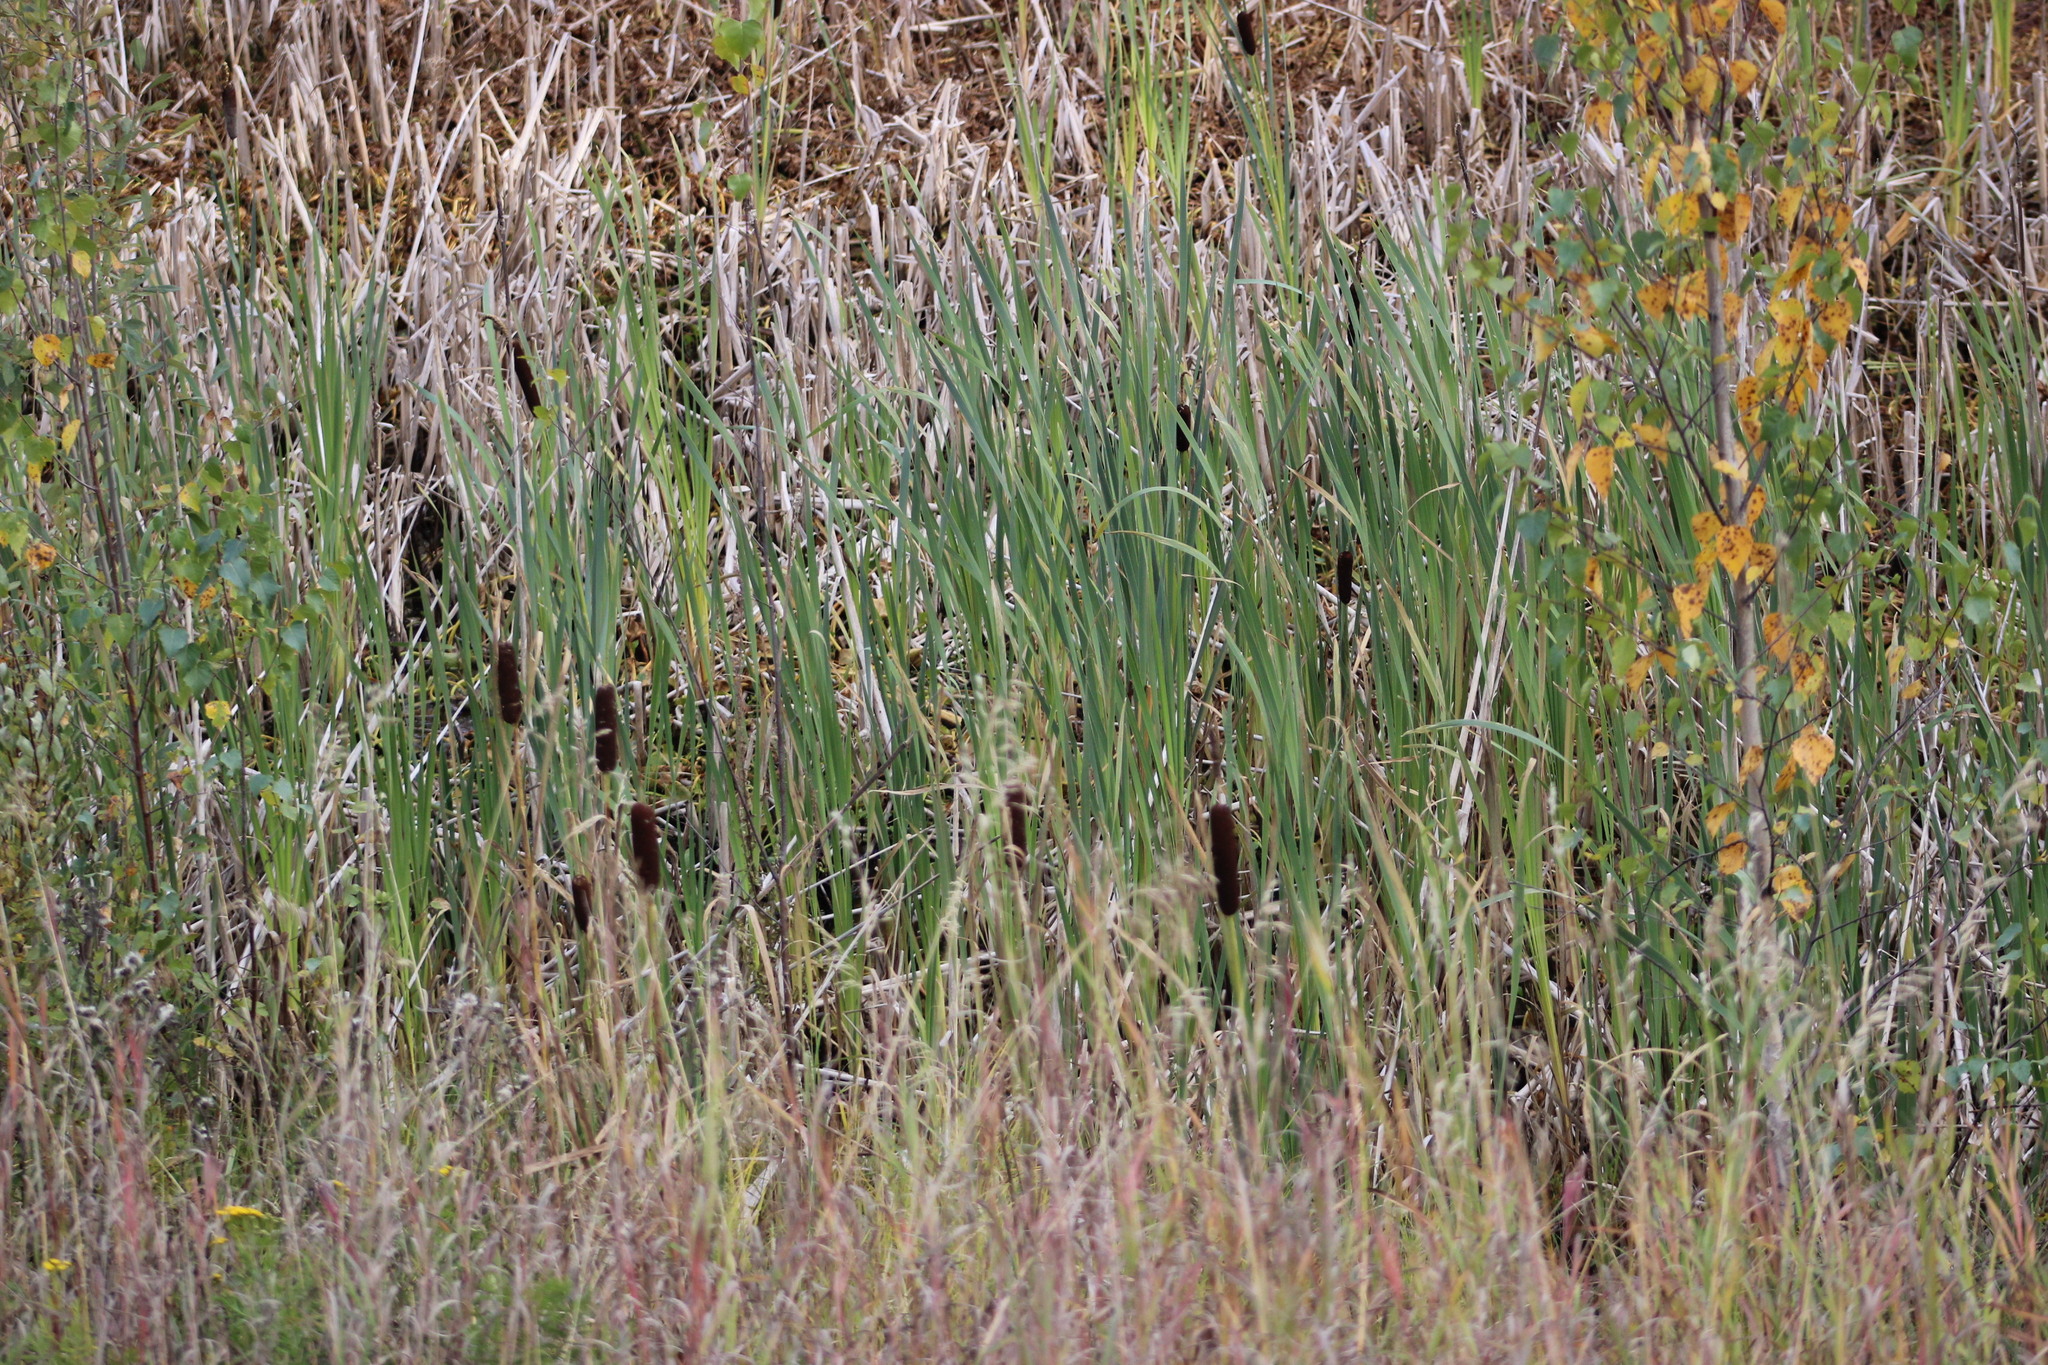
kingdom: Plantae
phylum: Tracheophyta
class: Liliopsida
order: Poales
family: Typhaceae
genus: Typha
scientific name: Typha latifolia
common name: Broadleaf cattail
